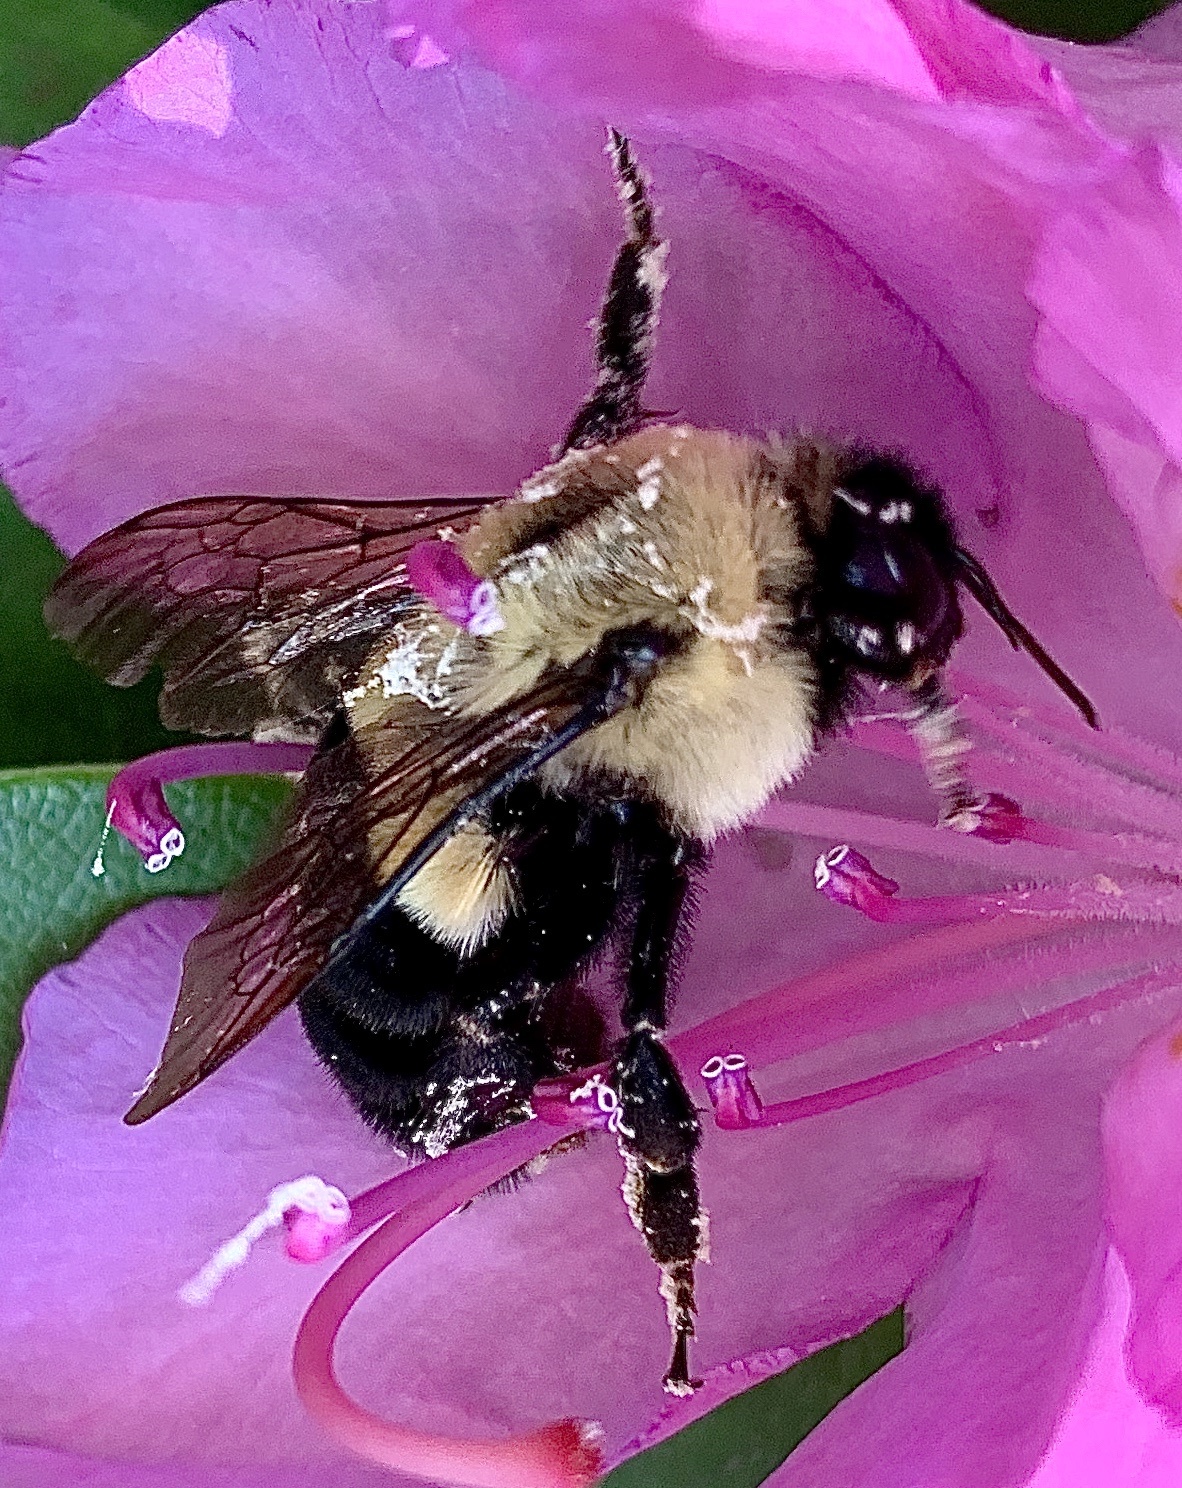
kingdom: Animalia
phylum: Arthropoda
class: Insecta
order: Hymenoptera
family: Apidae
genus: Bombus
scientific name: Bombus impatiens
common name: Common eastern bumble bee
